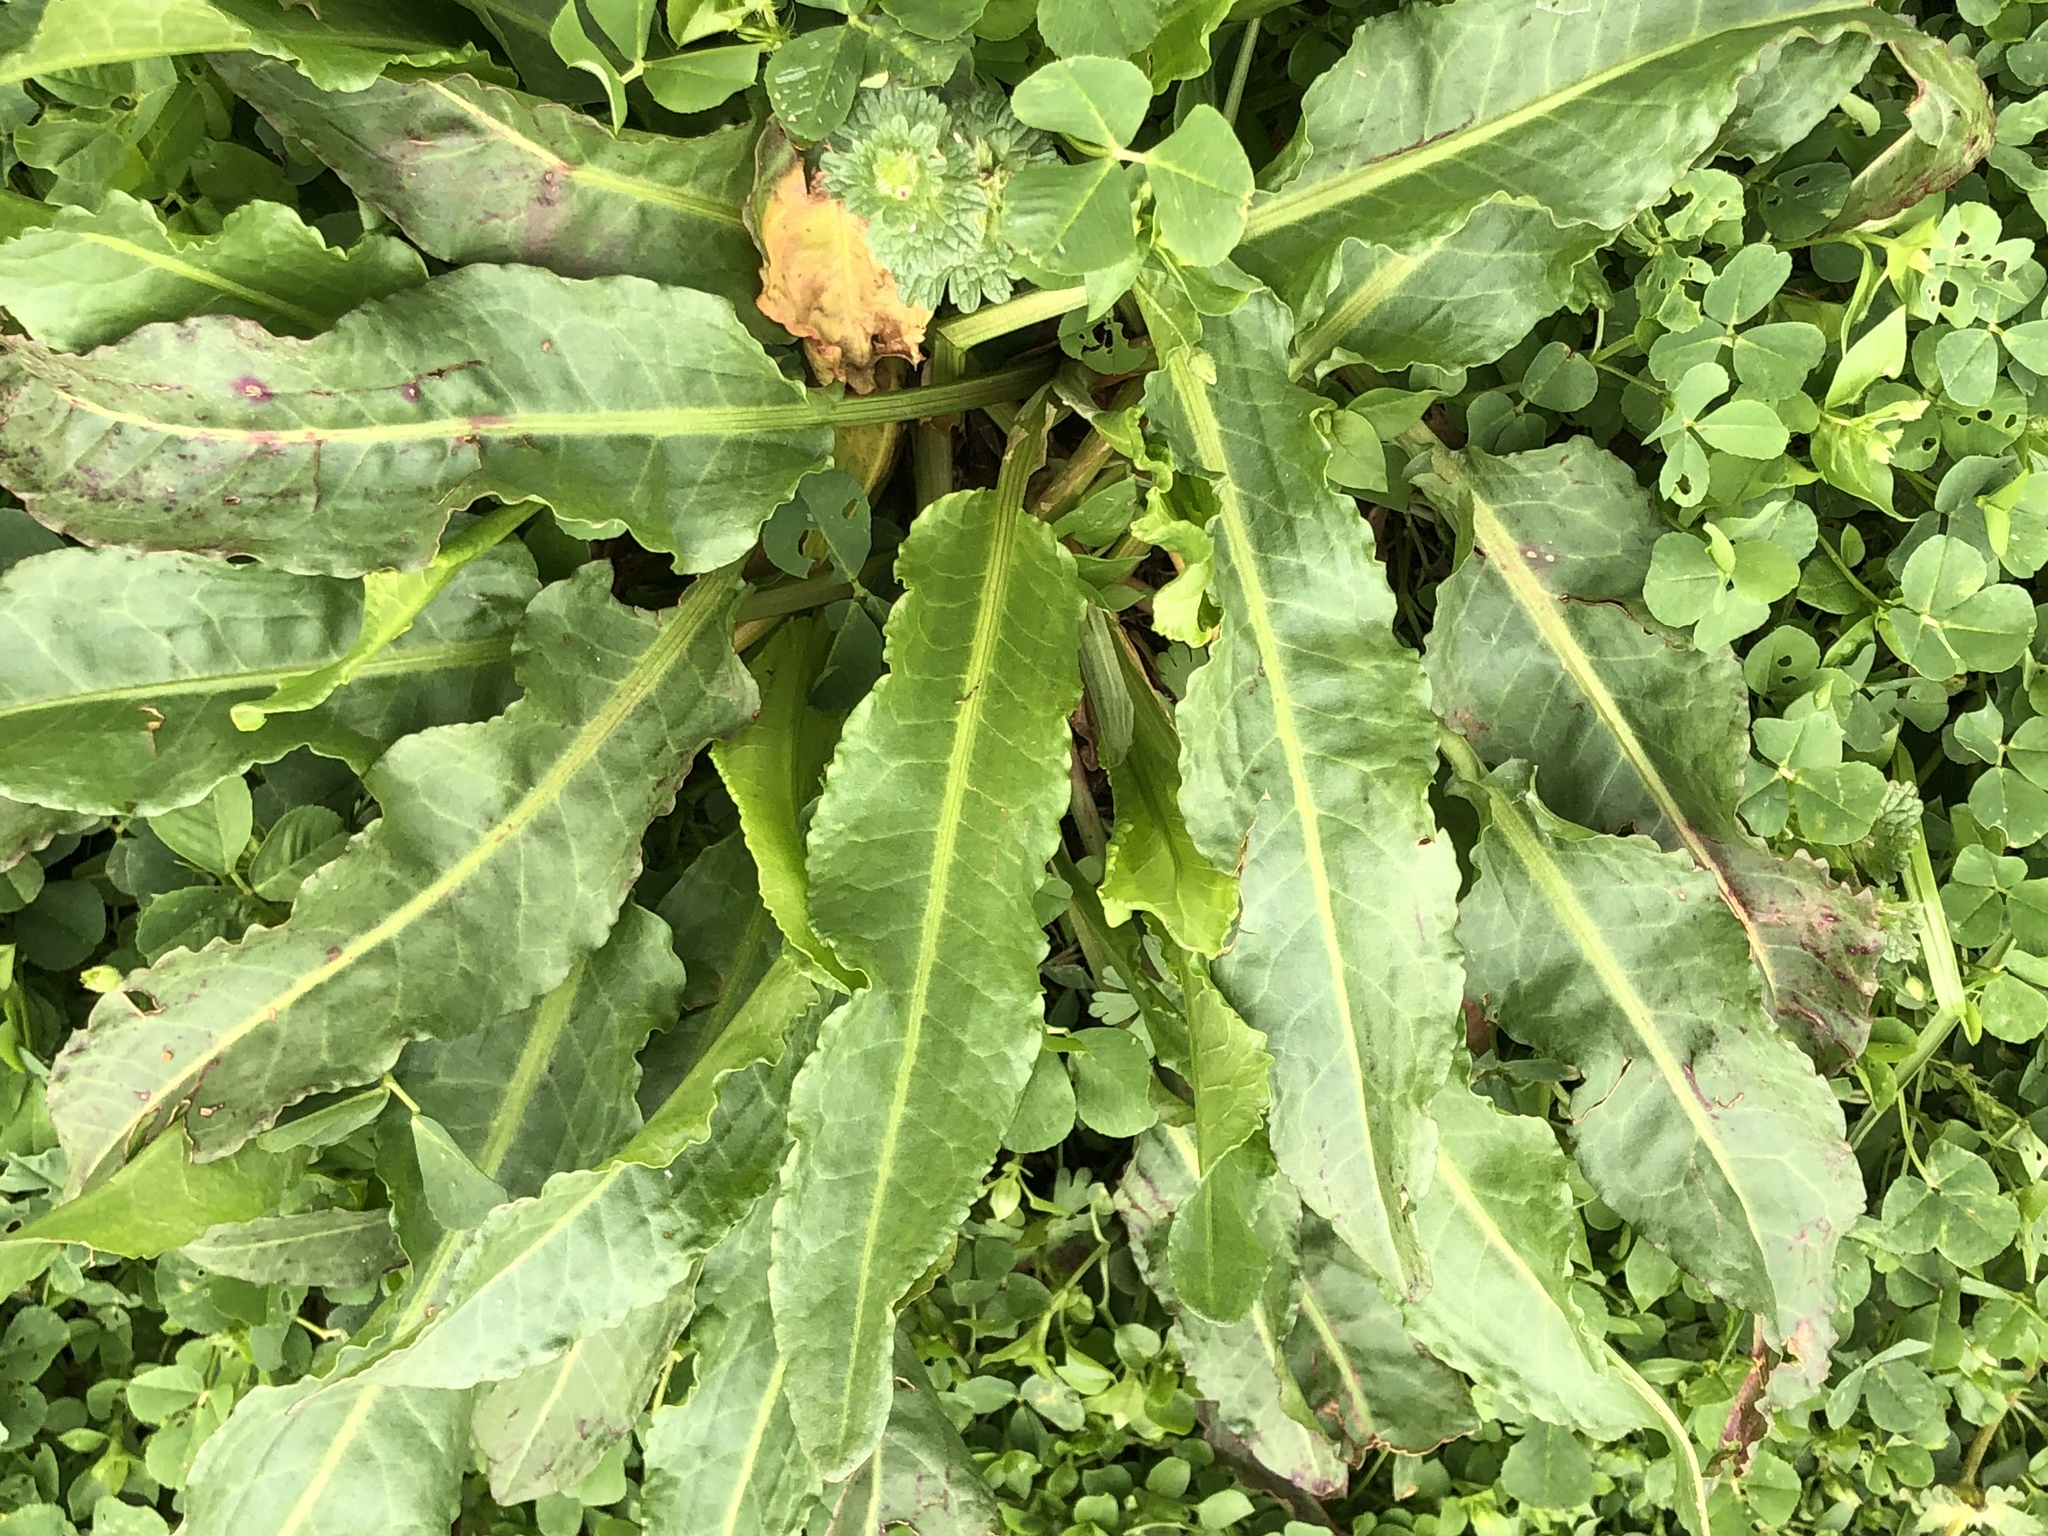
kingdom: Plantae
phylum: Tracheophyta
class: Magnoliopsida
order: Caryophyllales
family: Polygonaceae
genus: Rumex
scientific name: Rumex crispus
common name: Curled dock
